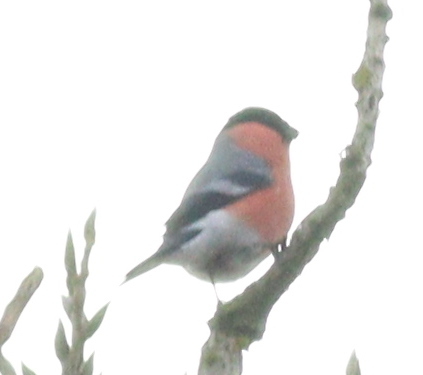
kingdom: Animalia
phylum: Chordata
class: Aves
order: Passeriformes
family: Fringillidae
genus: Pyrrhula
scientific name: Pyrrhula pyrrhula
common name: Eurasian bullfinch
